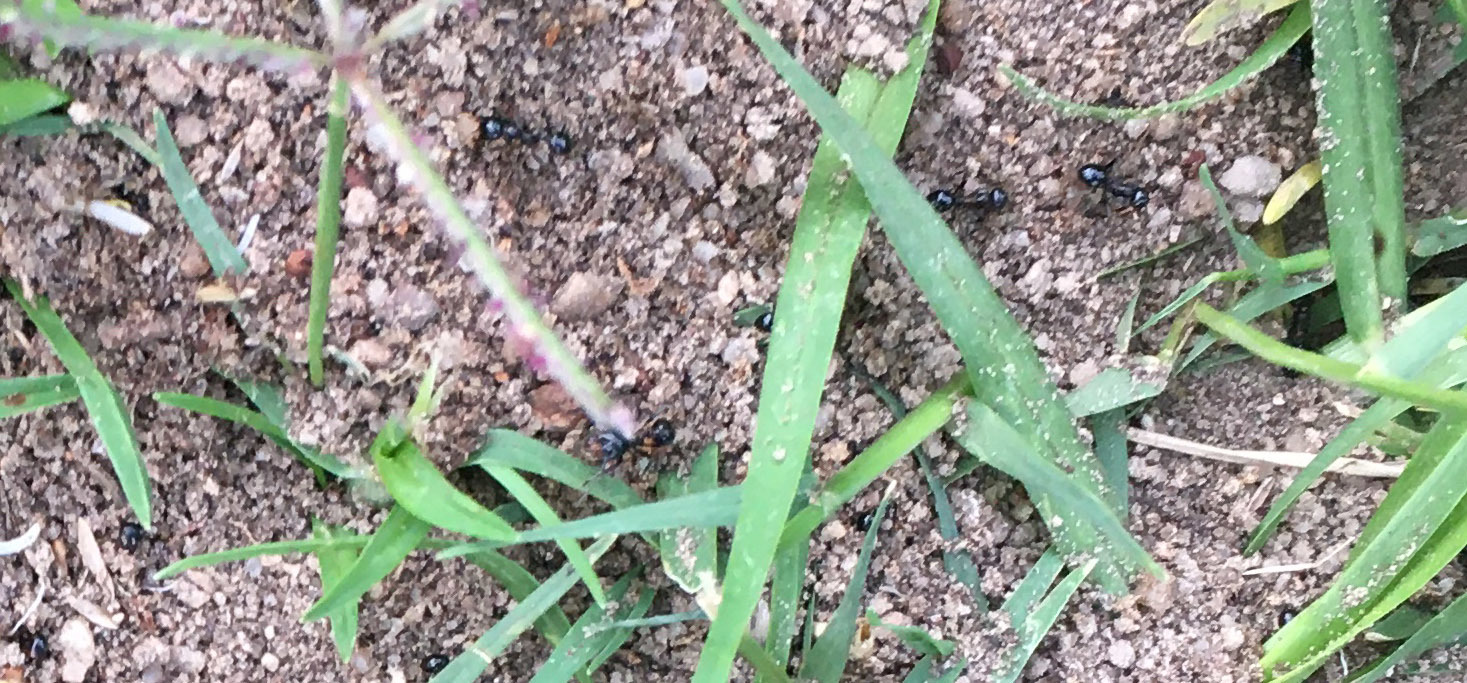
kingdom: Animalia
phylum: Arthropoda
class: Insecta
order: Hymenoptera
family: Formicidae
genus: Messor
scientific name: Messor capensis
